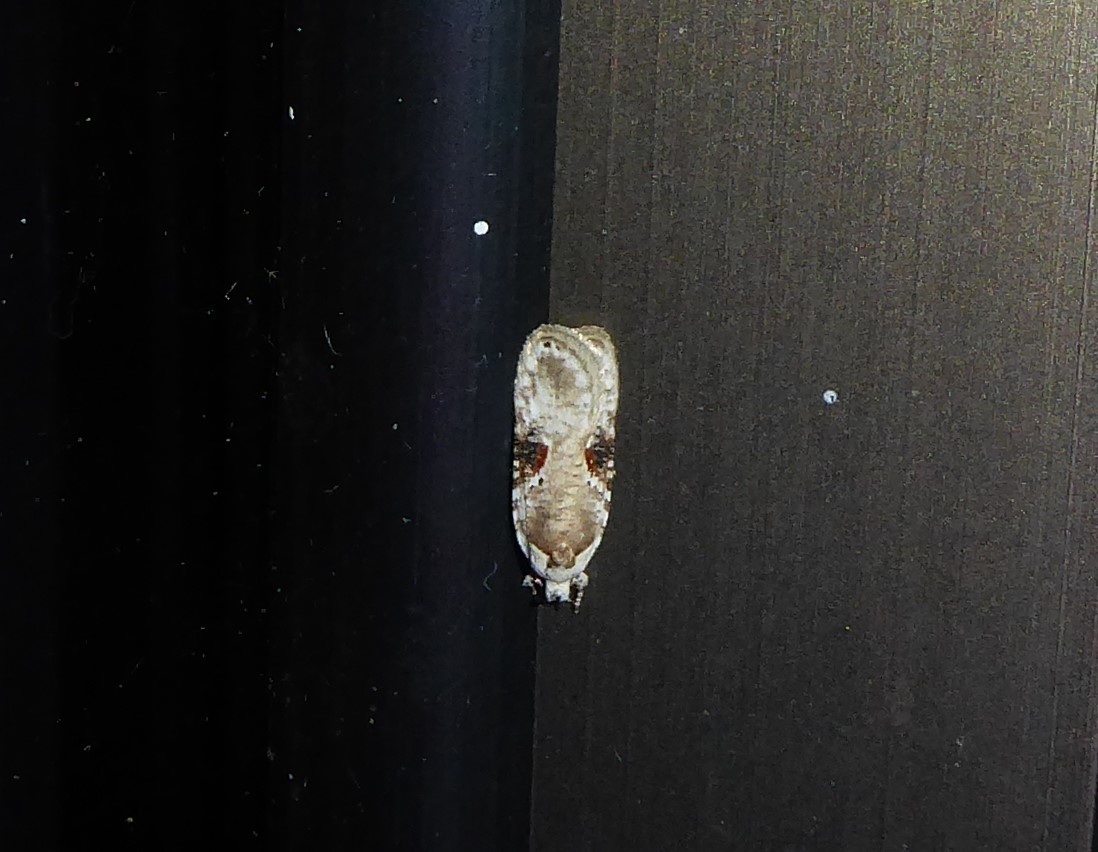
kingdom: Animalia
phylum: Arthropoda
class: Insecta
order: Lepidoptera
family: Depressariidae
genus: Agonopterix
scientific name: Agonopterix alstroemeriana
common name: Moth
